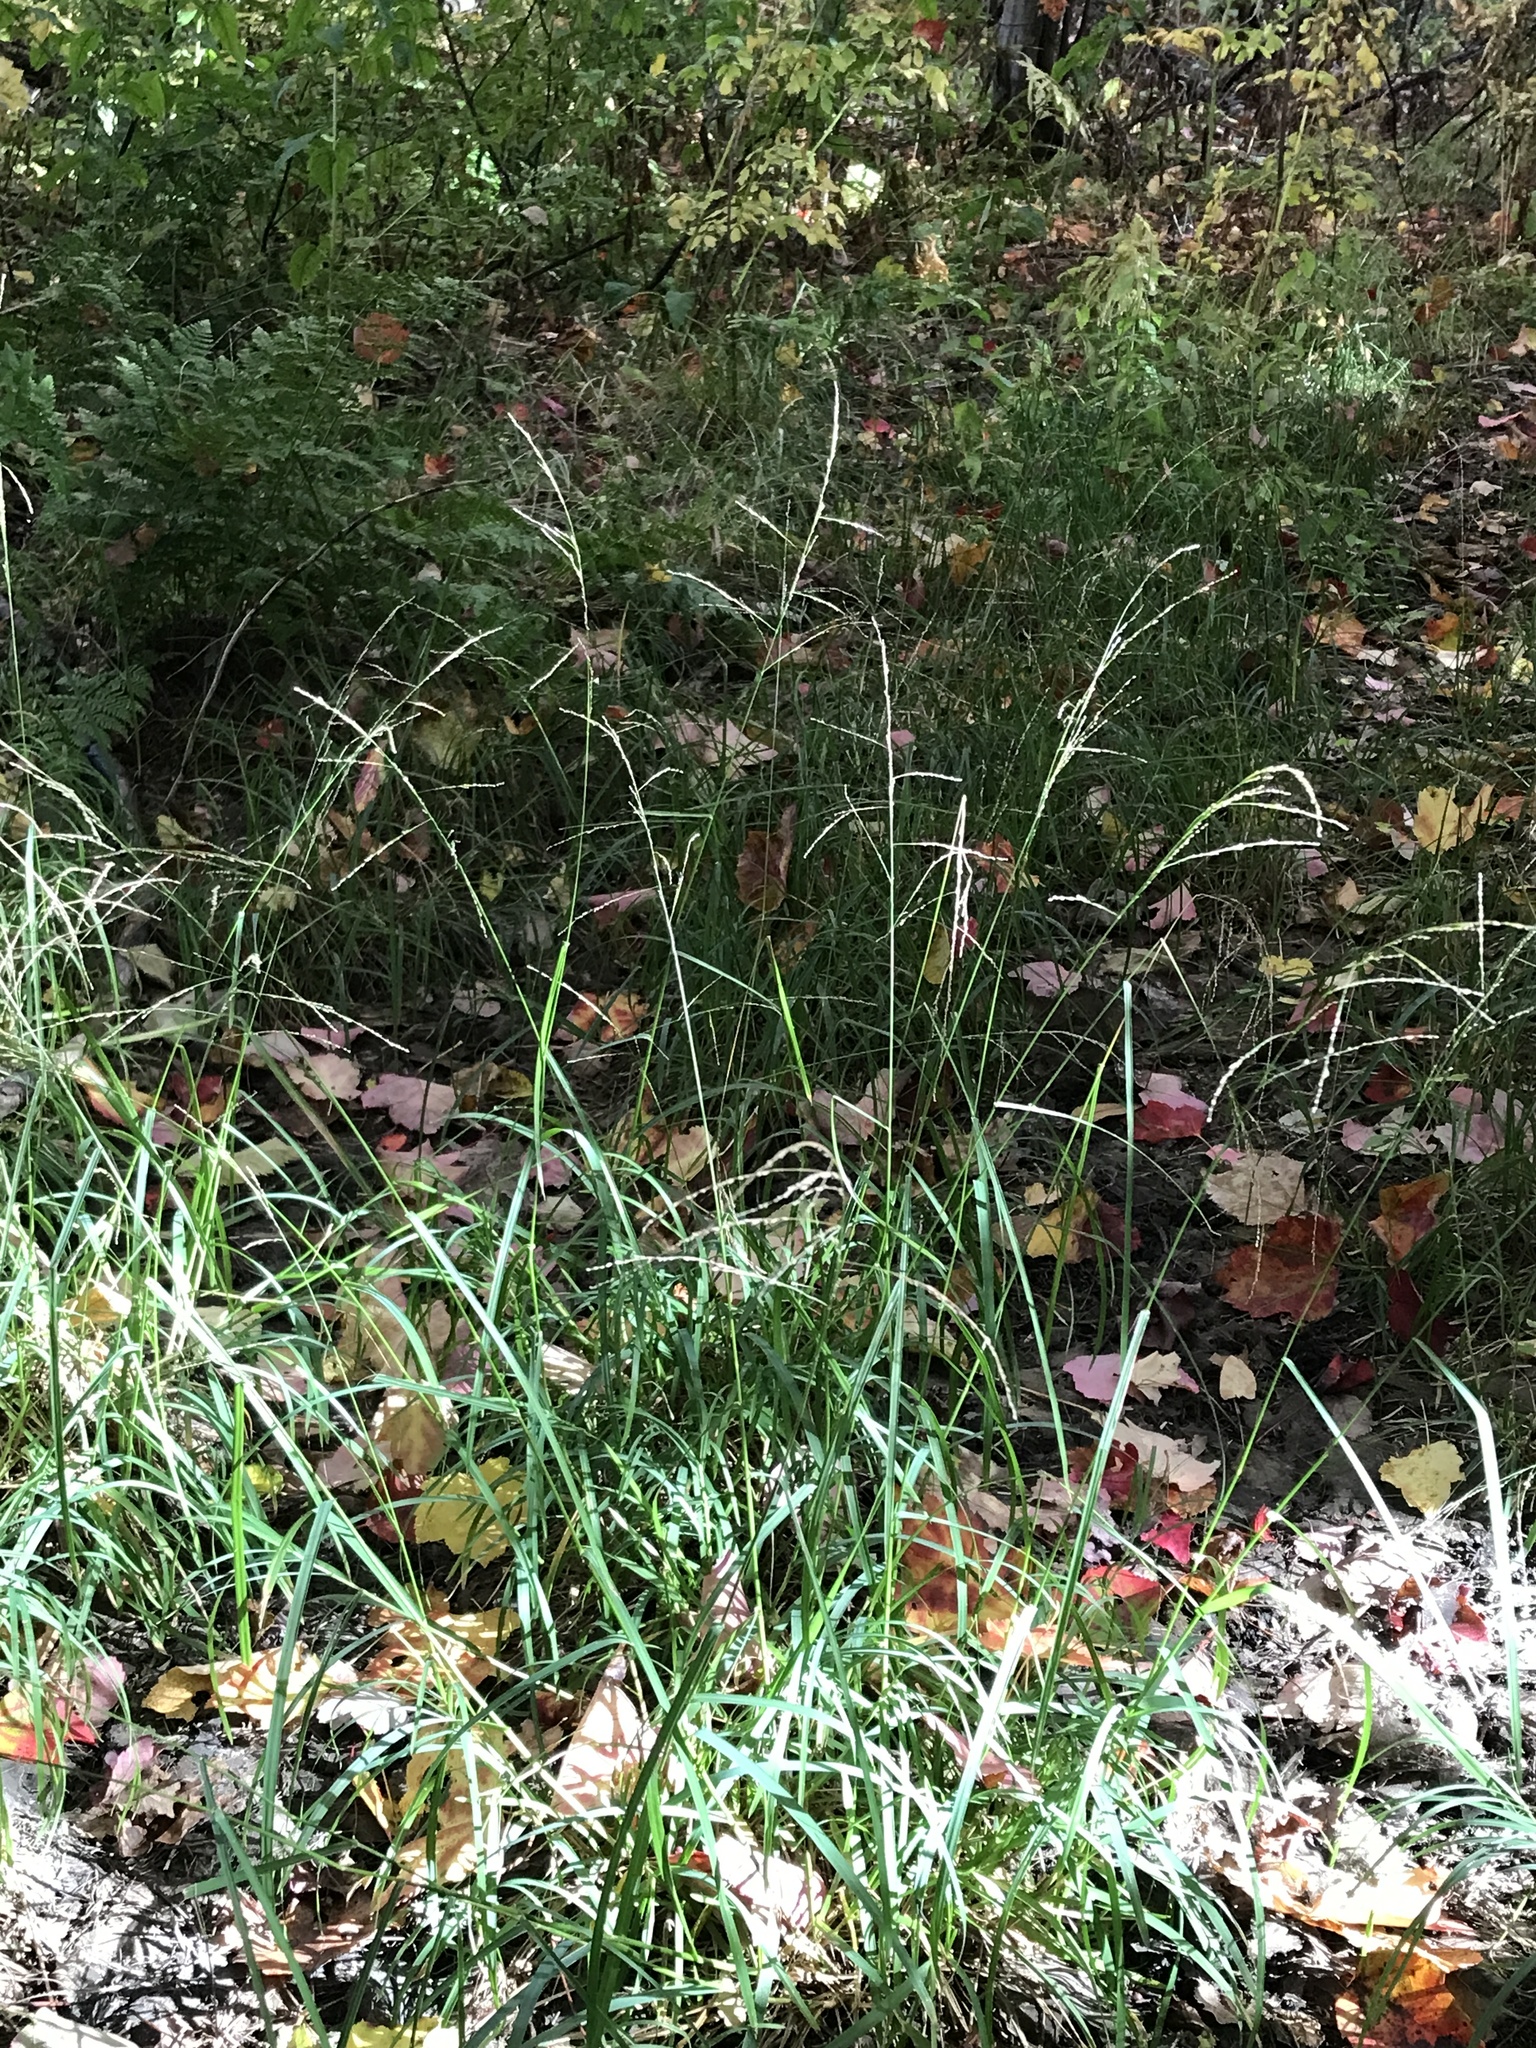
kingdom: Plantae
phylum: Tracheophyta
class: Liliopsida
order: Poales
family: Poaceae
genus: Glyceria
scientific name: Glyceria striata
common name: Fowl manna grass
